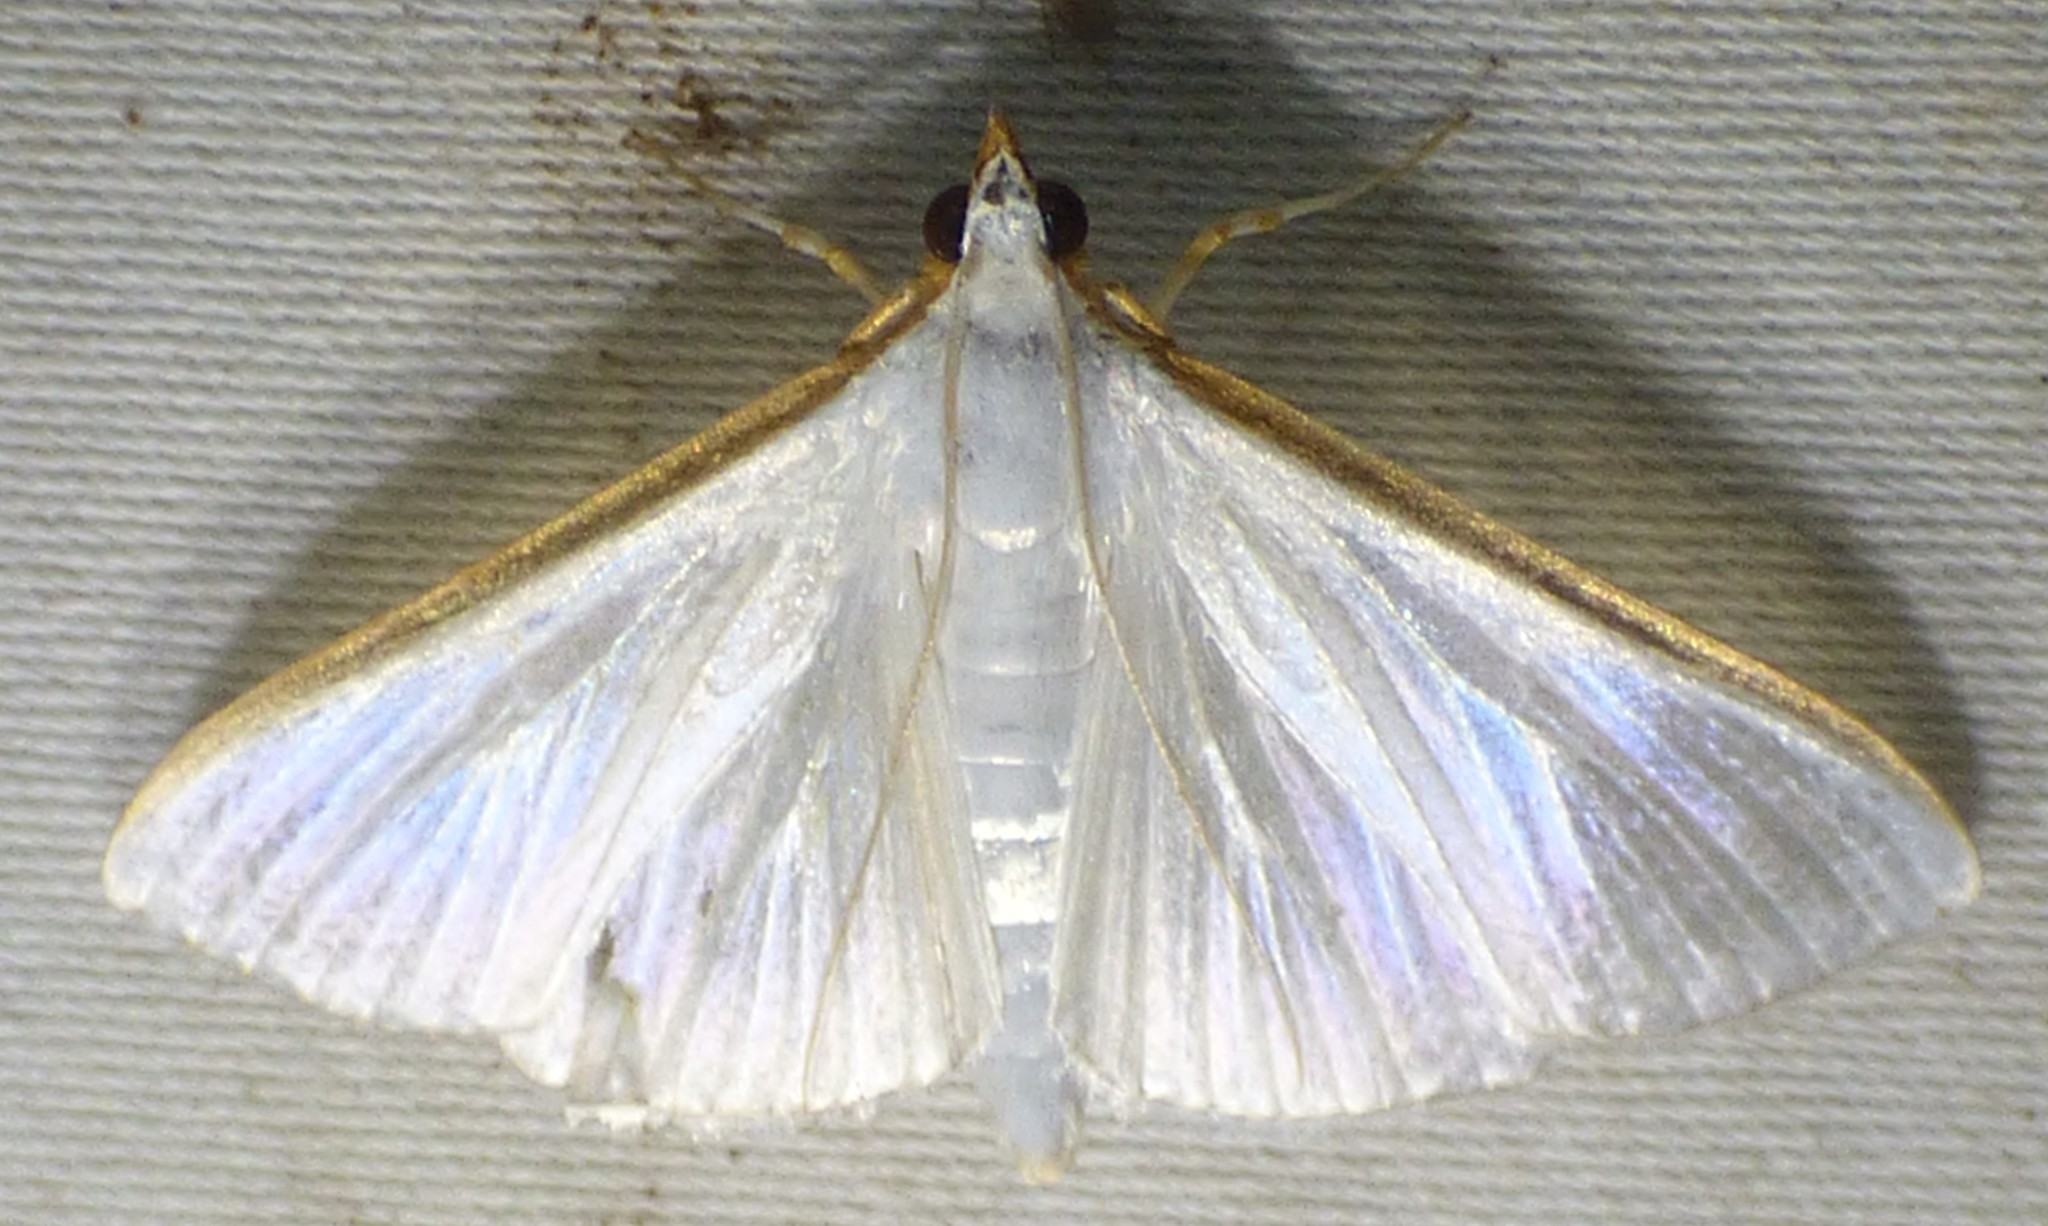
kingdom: Animalia
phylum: Arthropoda
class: Insecta
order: Lepidoptera
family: Crambidae
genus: Diaphania
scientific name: Diaphania costata
